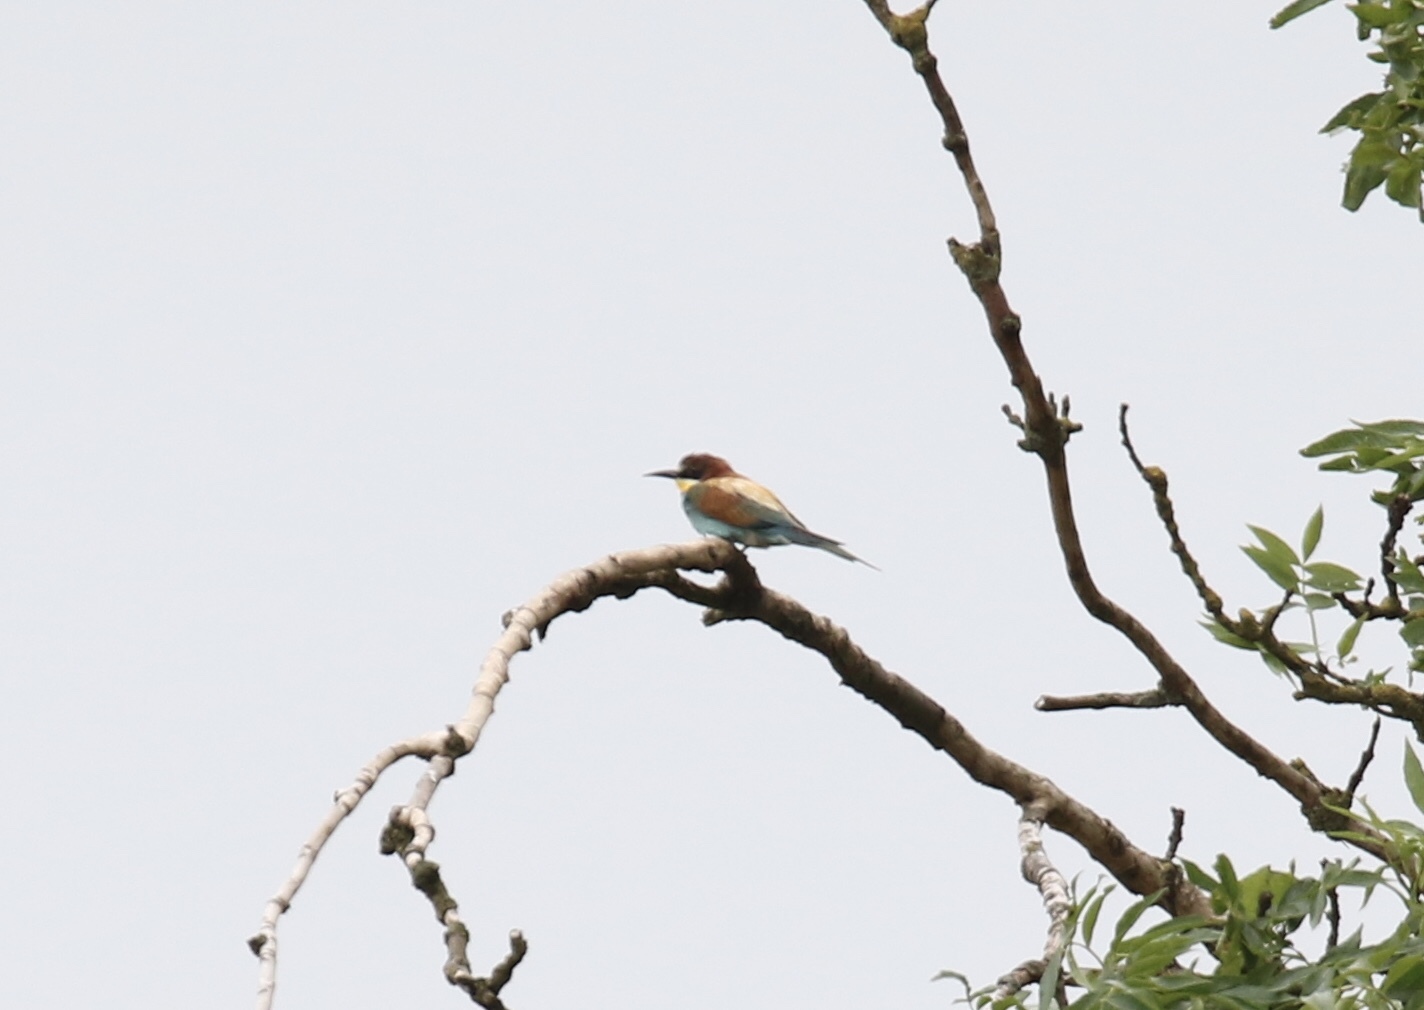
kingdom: Animalia
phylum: Chordata
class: Aves
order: Coraciiformes
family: Meropidae
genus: Merops
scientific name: Merops apiaster
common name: European bee-eater
